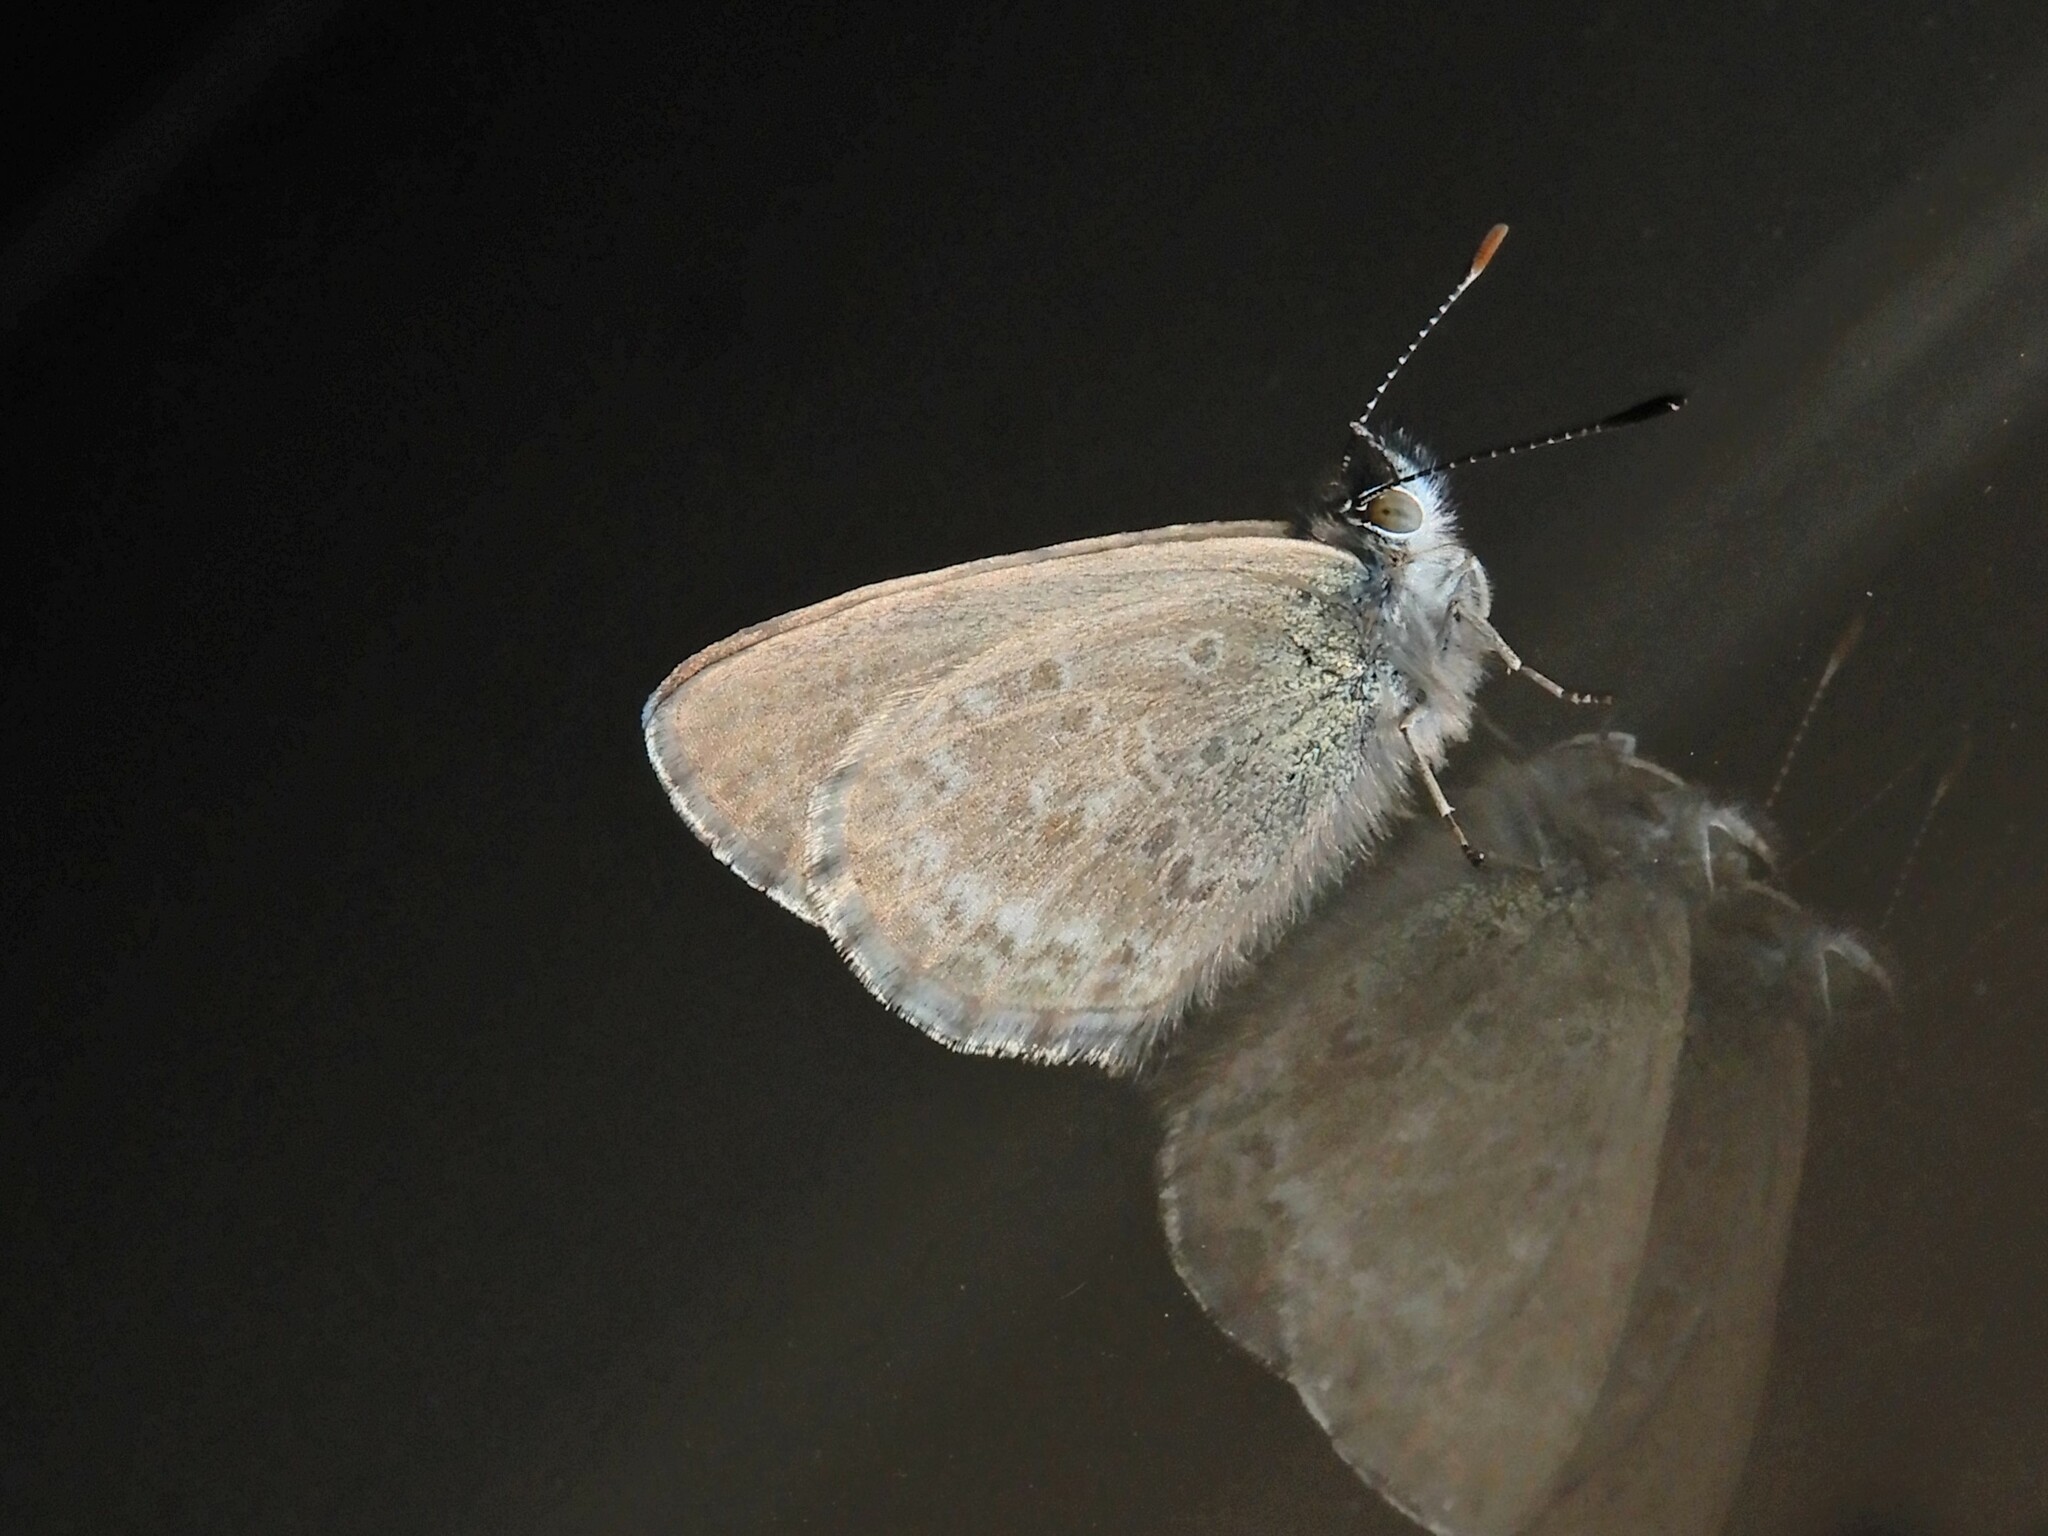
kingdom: Animalia
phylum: Arthropoda
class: Insecta
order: Lepidoptera
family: Lycaenidae
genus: Zizina
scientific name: Zizina otis
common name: Lesser grass blue
